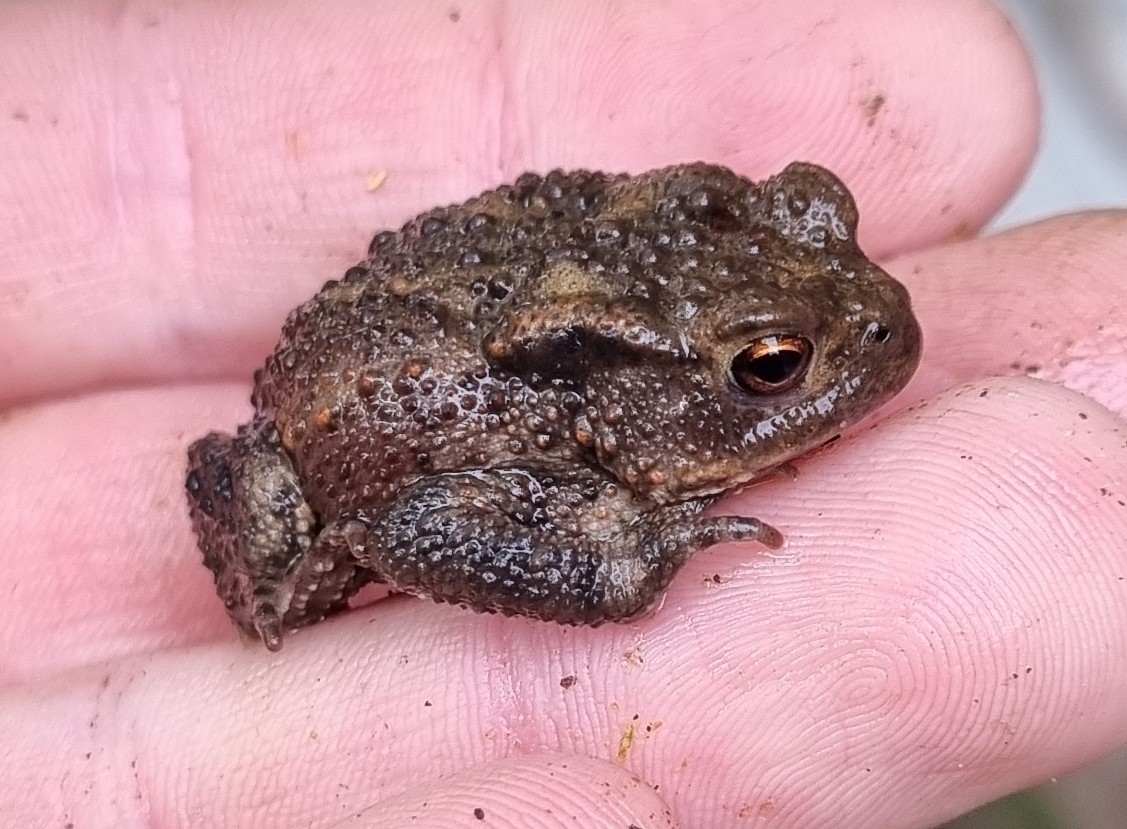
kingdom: Animalia
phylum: Chordata
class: Amphibia
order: Anura
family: Bufonidae
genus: Bufo
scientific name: Bufo bufo
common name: Common toad
